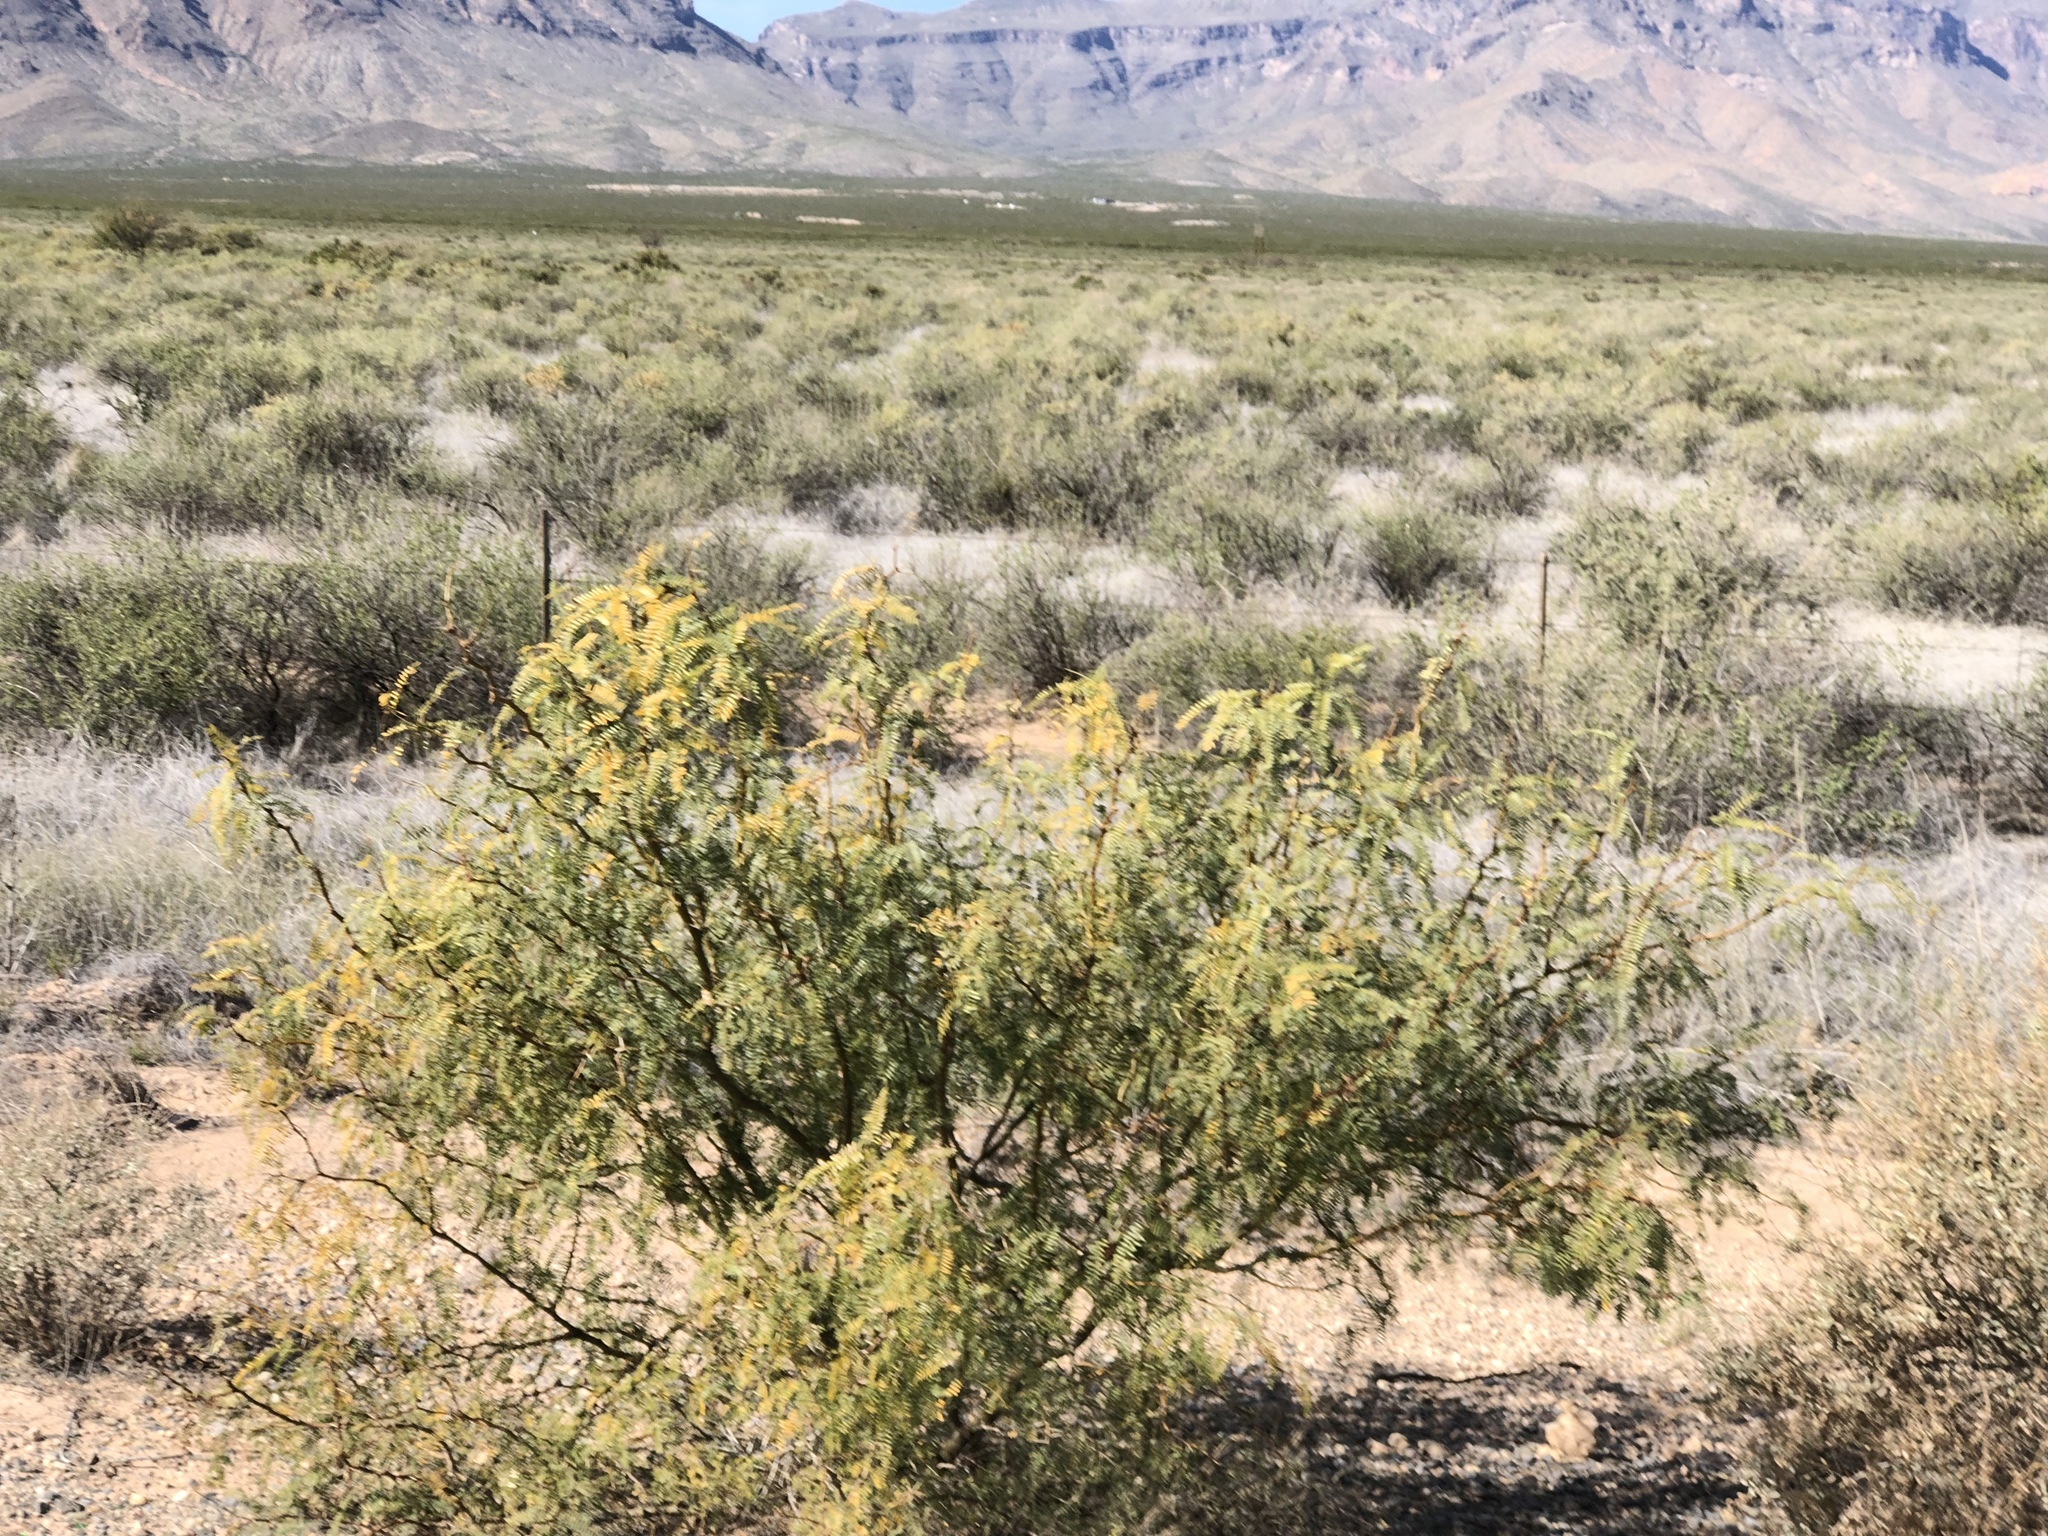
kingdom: Plantae
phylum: Tracheophyta
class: Magnoliopsida
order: Fabales
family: Fabaceae
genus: Prosopis
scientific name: Prosopis glandulosa
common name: Honey mesquite
